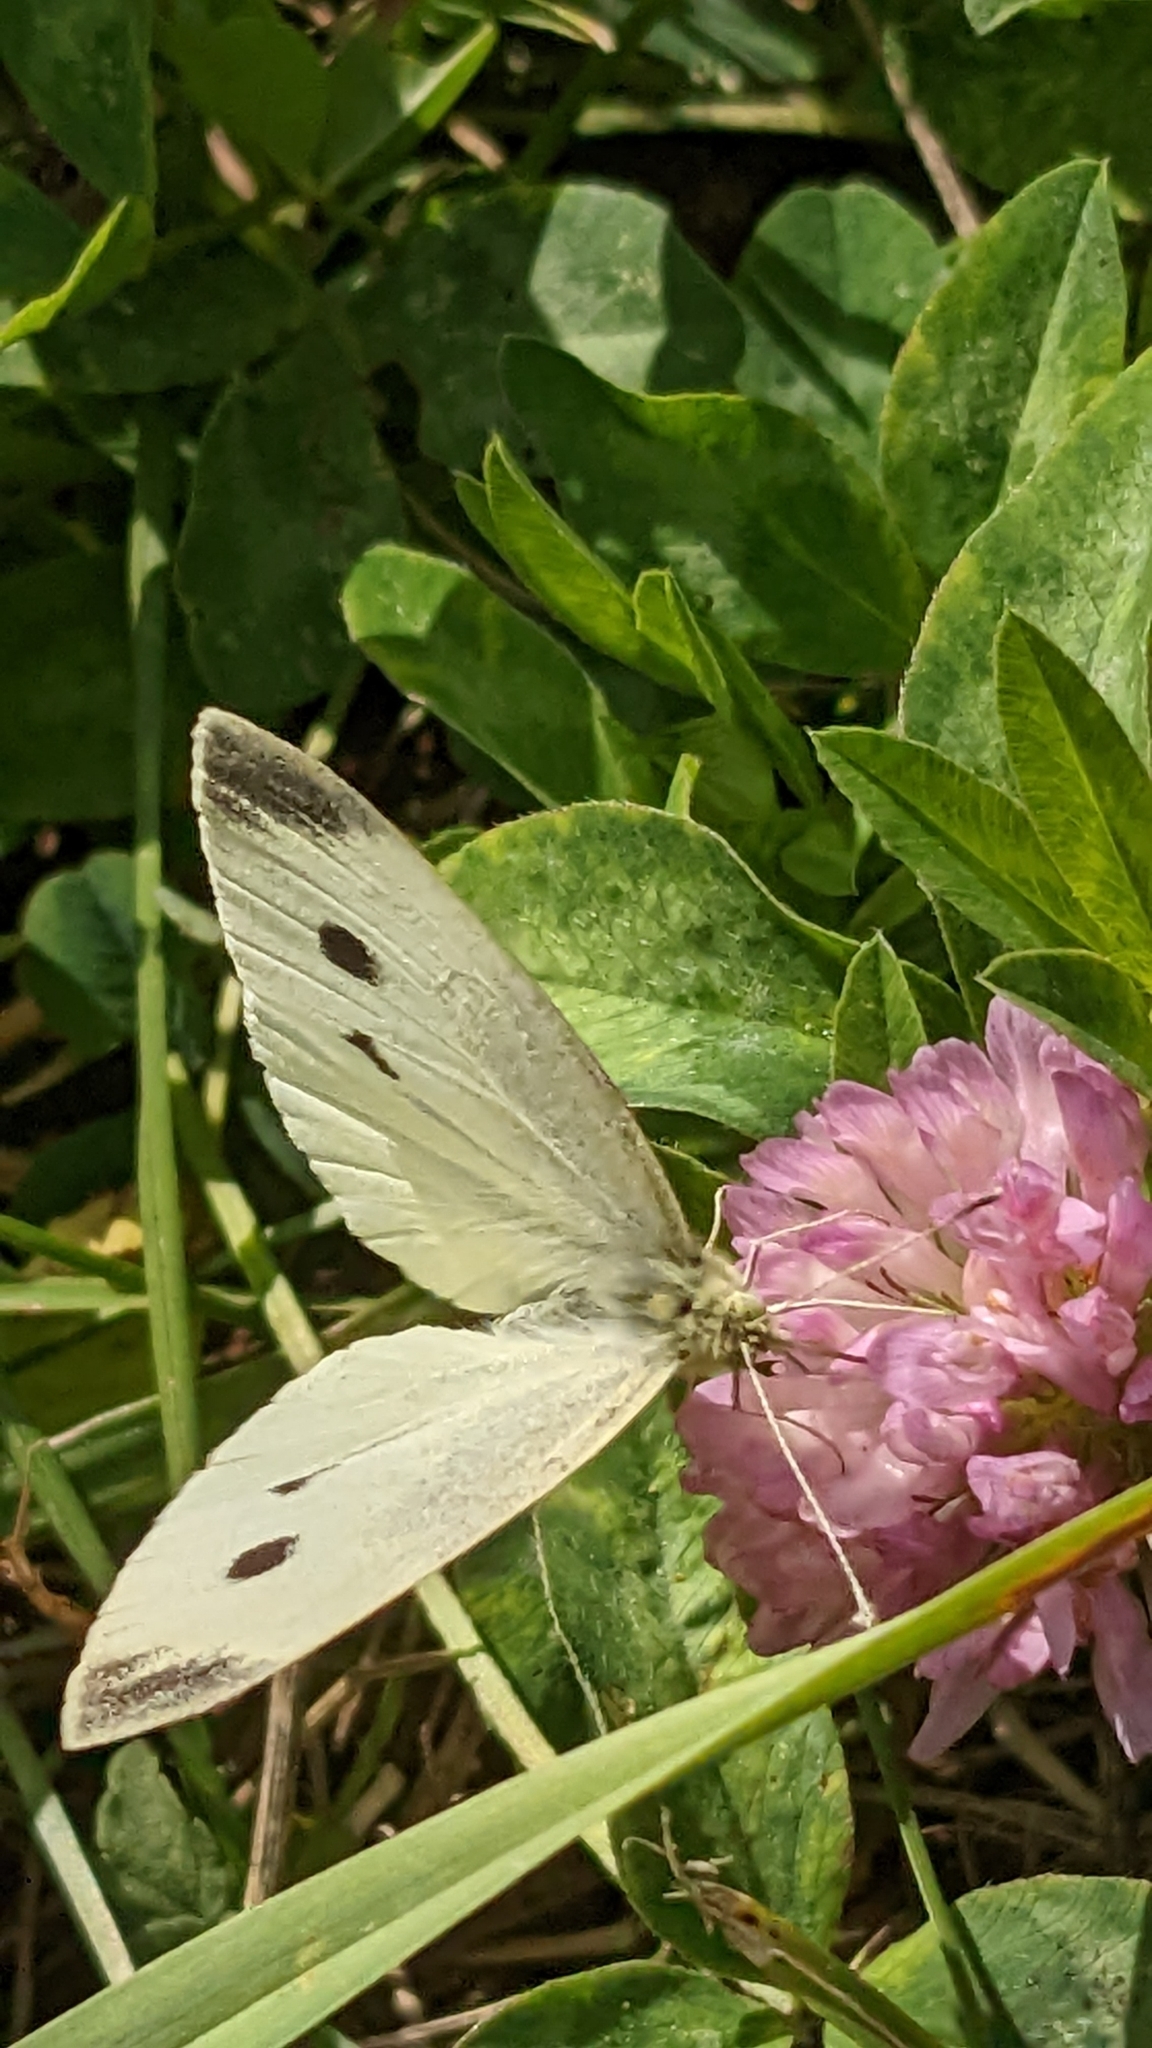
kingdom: Animalia
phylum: Arthropoda
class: Insecta
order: Lepidoptera
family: Pieridae
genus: Pieris
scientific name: Pieris rapae
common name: Small white
